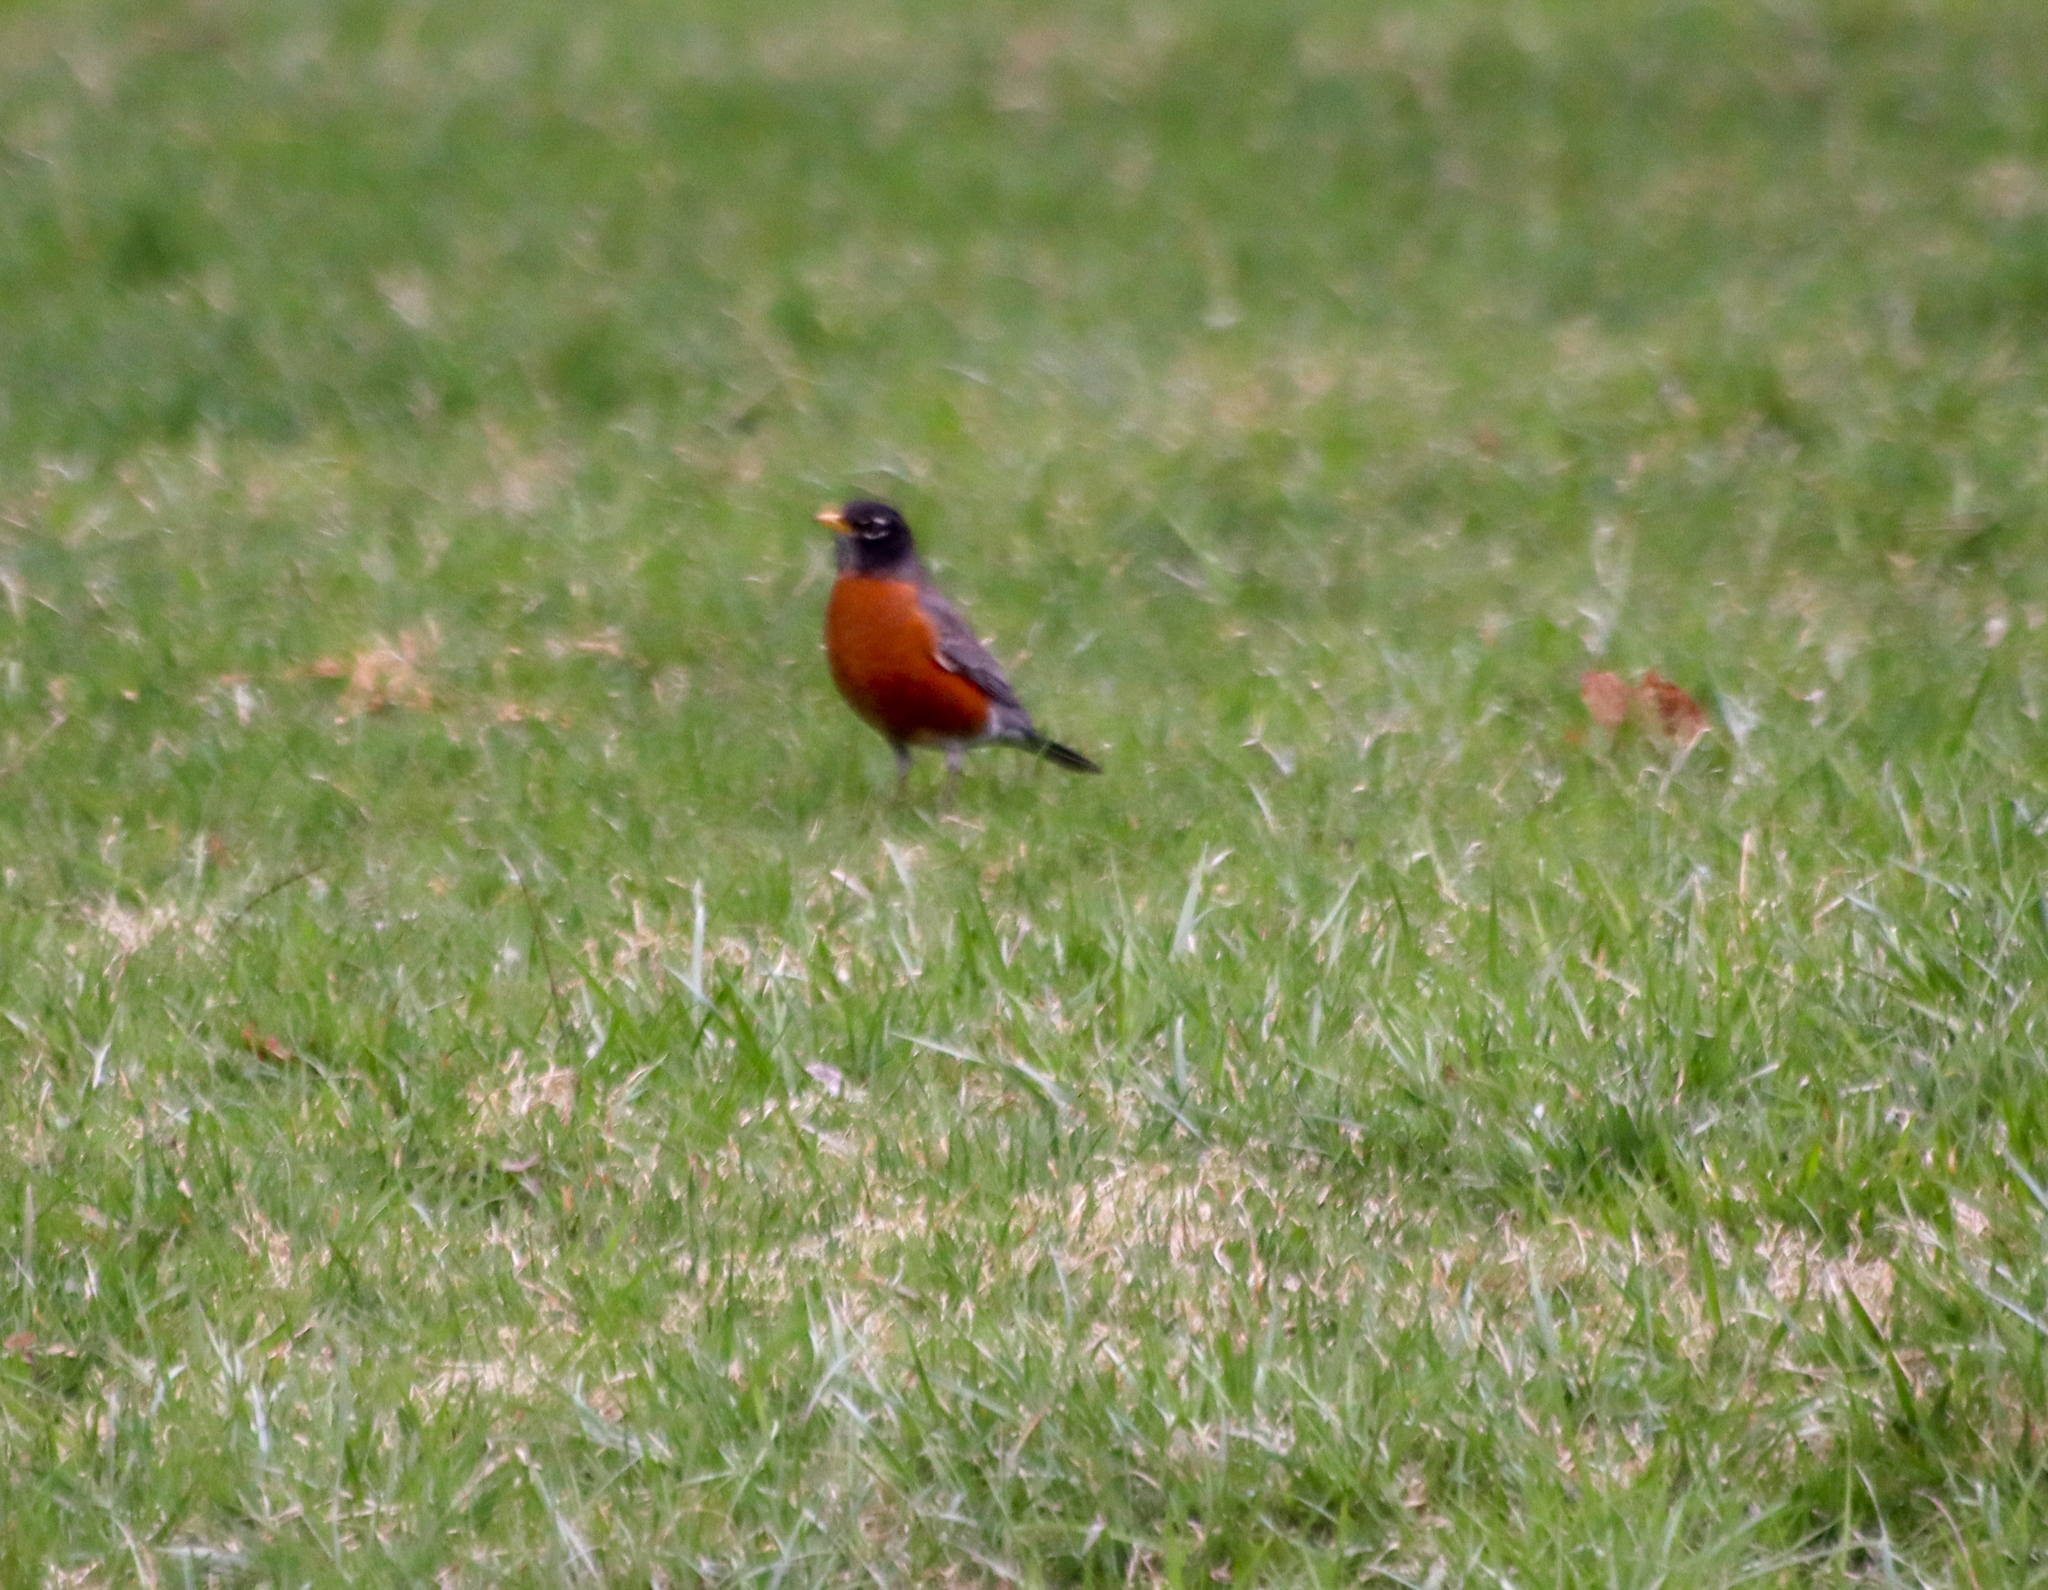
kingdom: Animalia
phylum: Chordata
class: Aves
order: Passeriformes
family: Turdidae
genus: Turdus
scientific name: Turdus migratorius
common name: American robin
